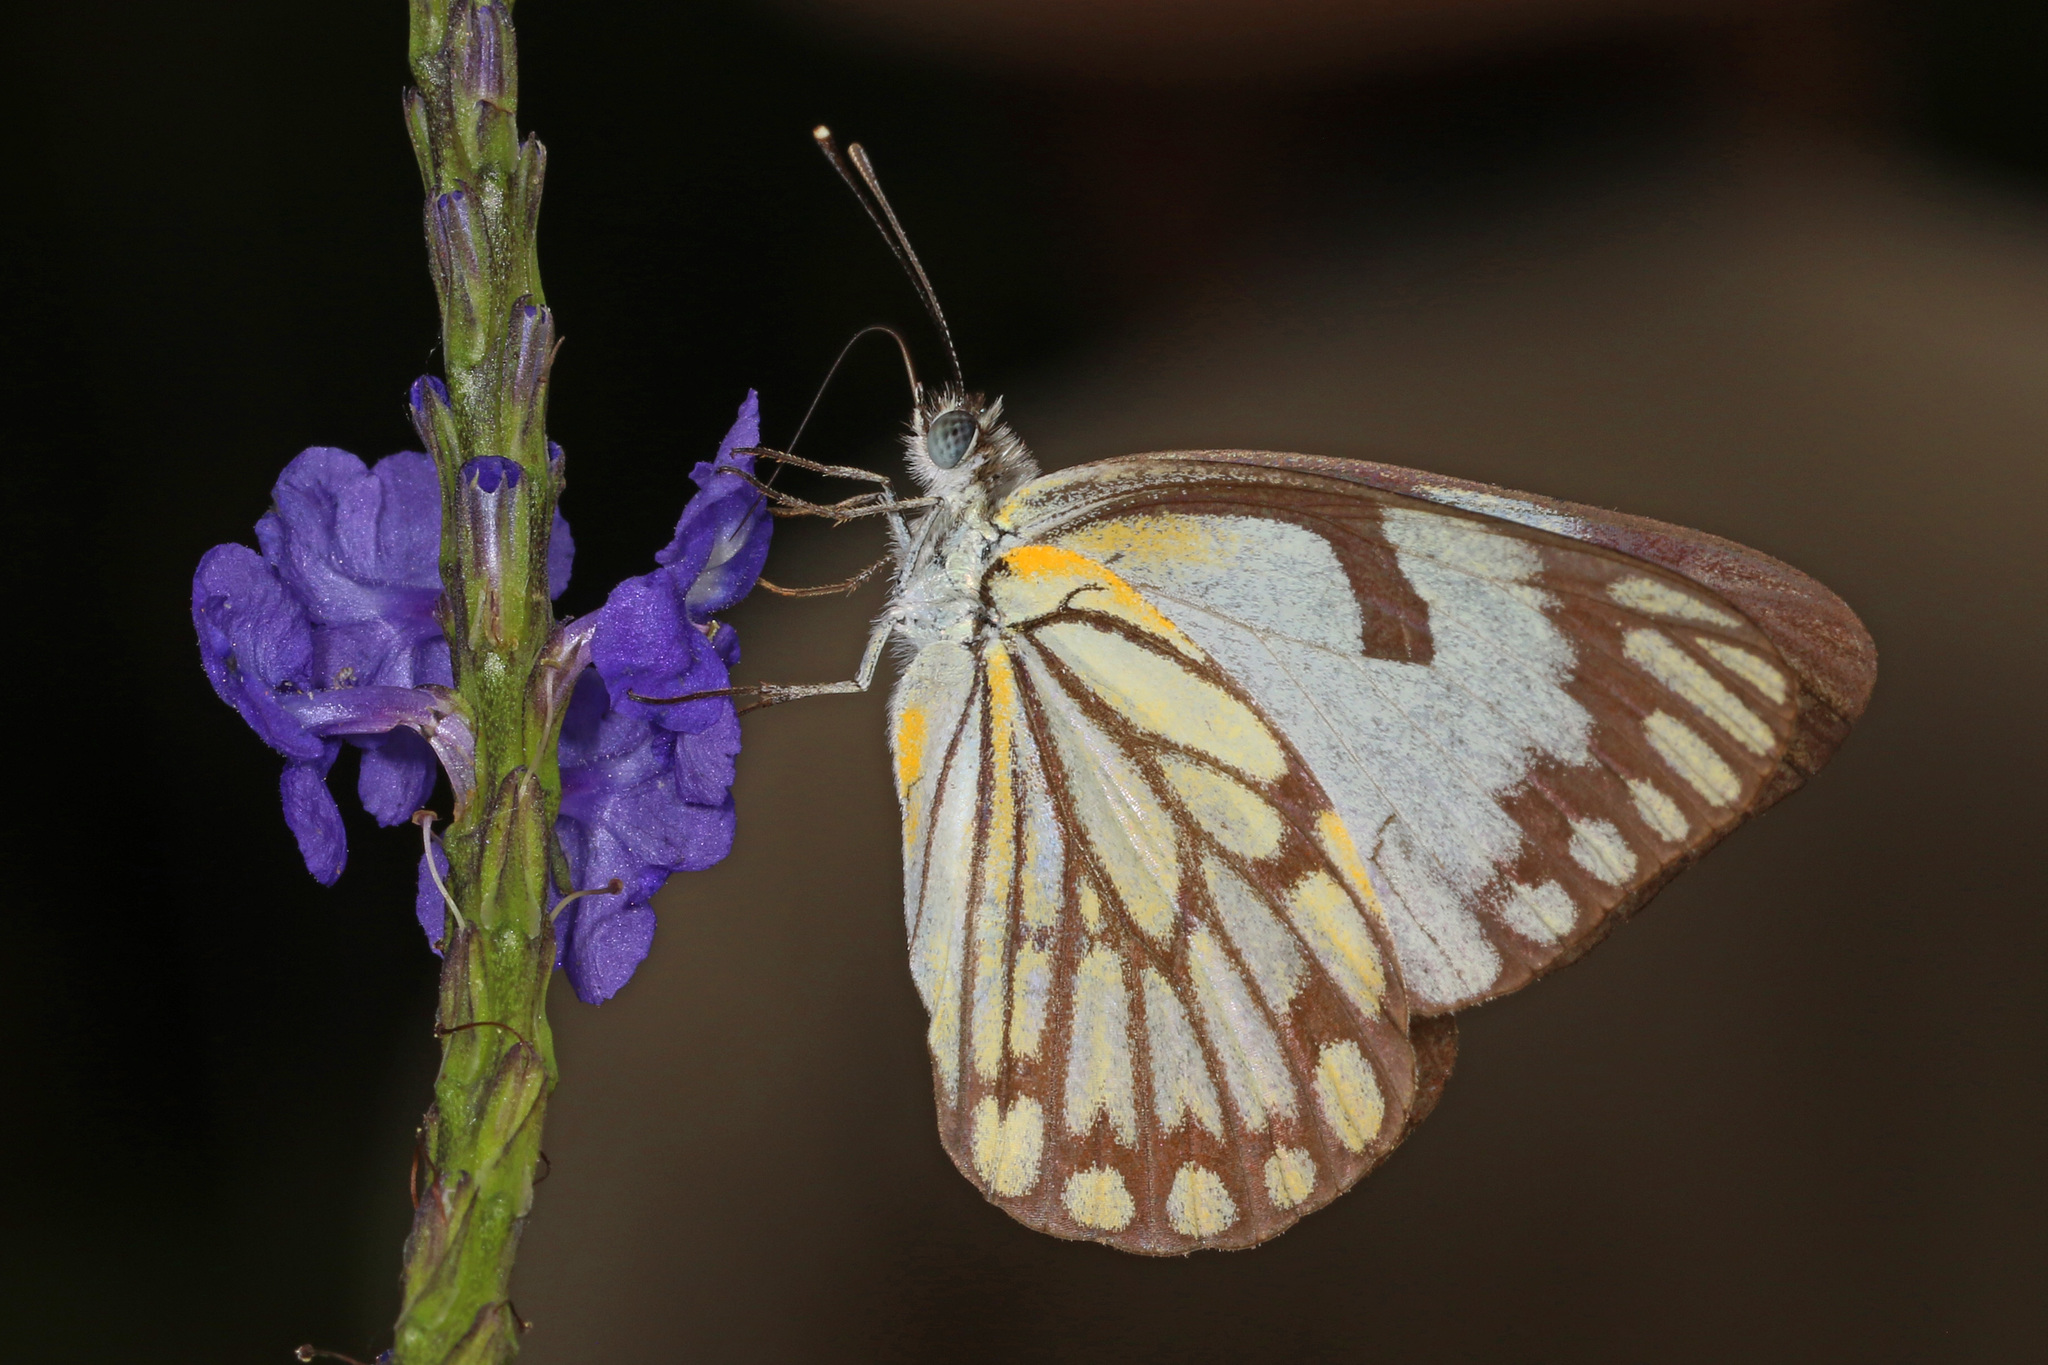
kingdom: Animalia
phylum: Arthropoda
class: Insecta
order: Lepidoptera
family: Pieridae
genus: Belenois
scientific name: Belenois aurota
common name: Brown-veined white
